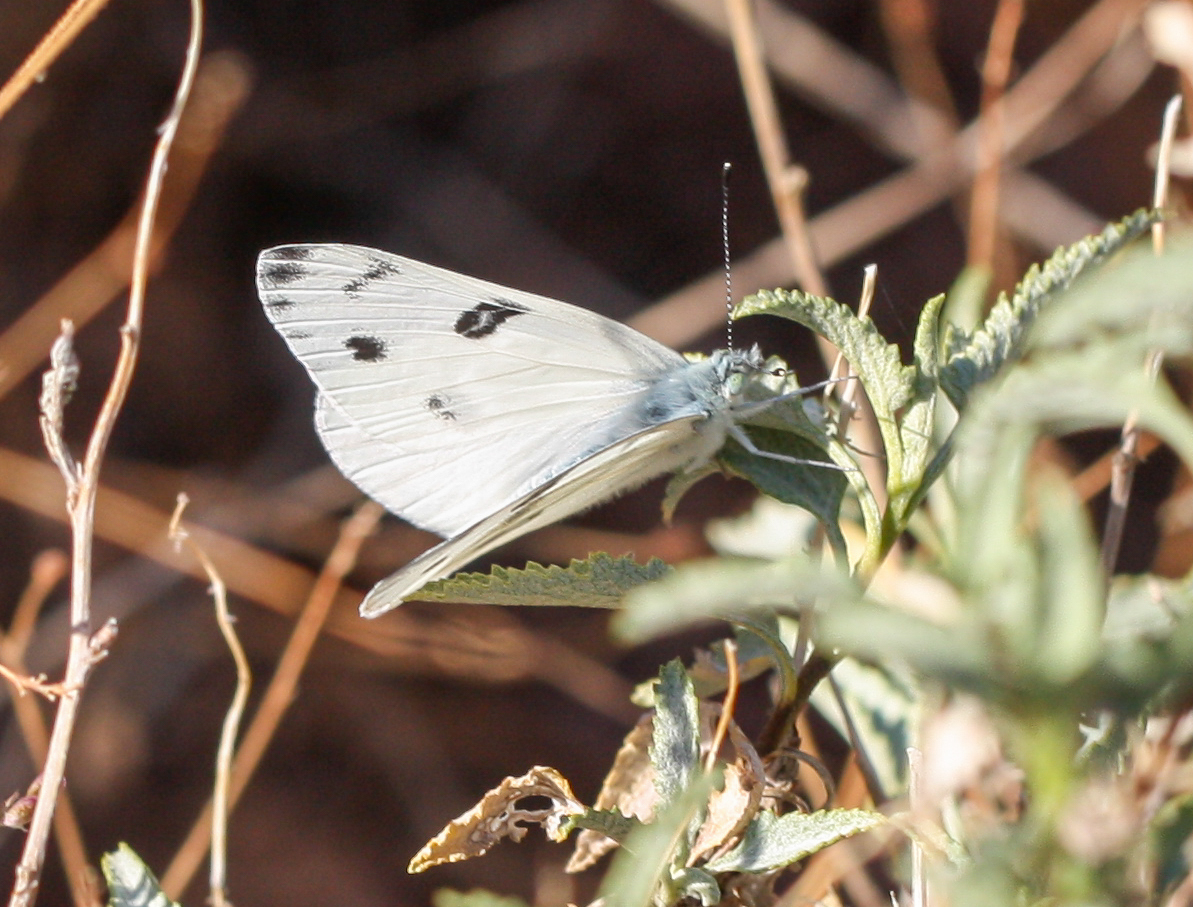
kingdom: Animalia
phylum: Arthropoda
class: Insecta
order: Lepidoptera
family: Pieridae
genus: Pontia
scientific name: Pontia protodice
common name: Checkered white
